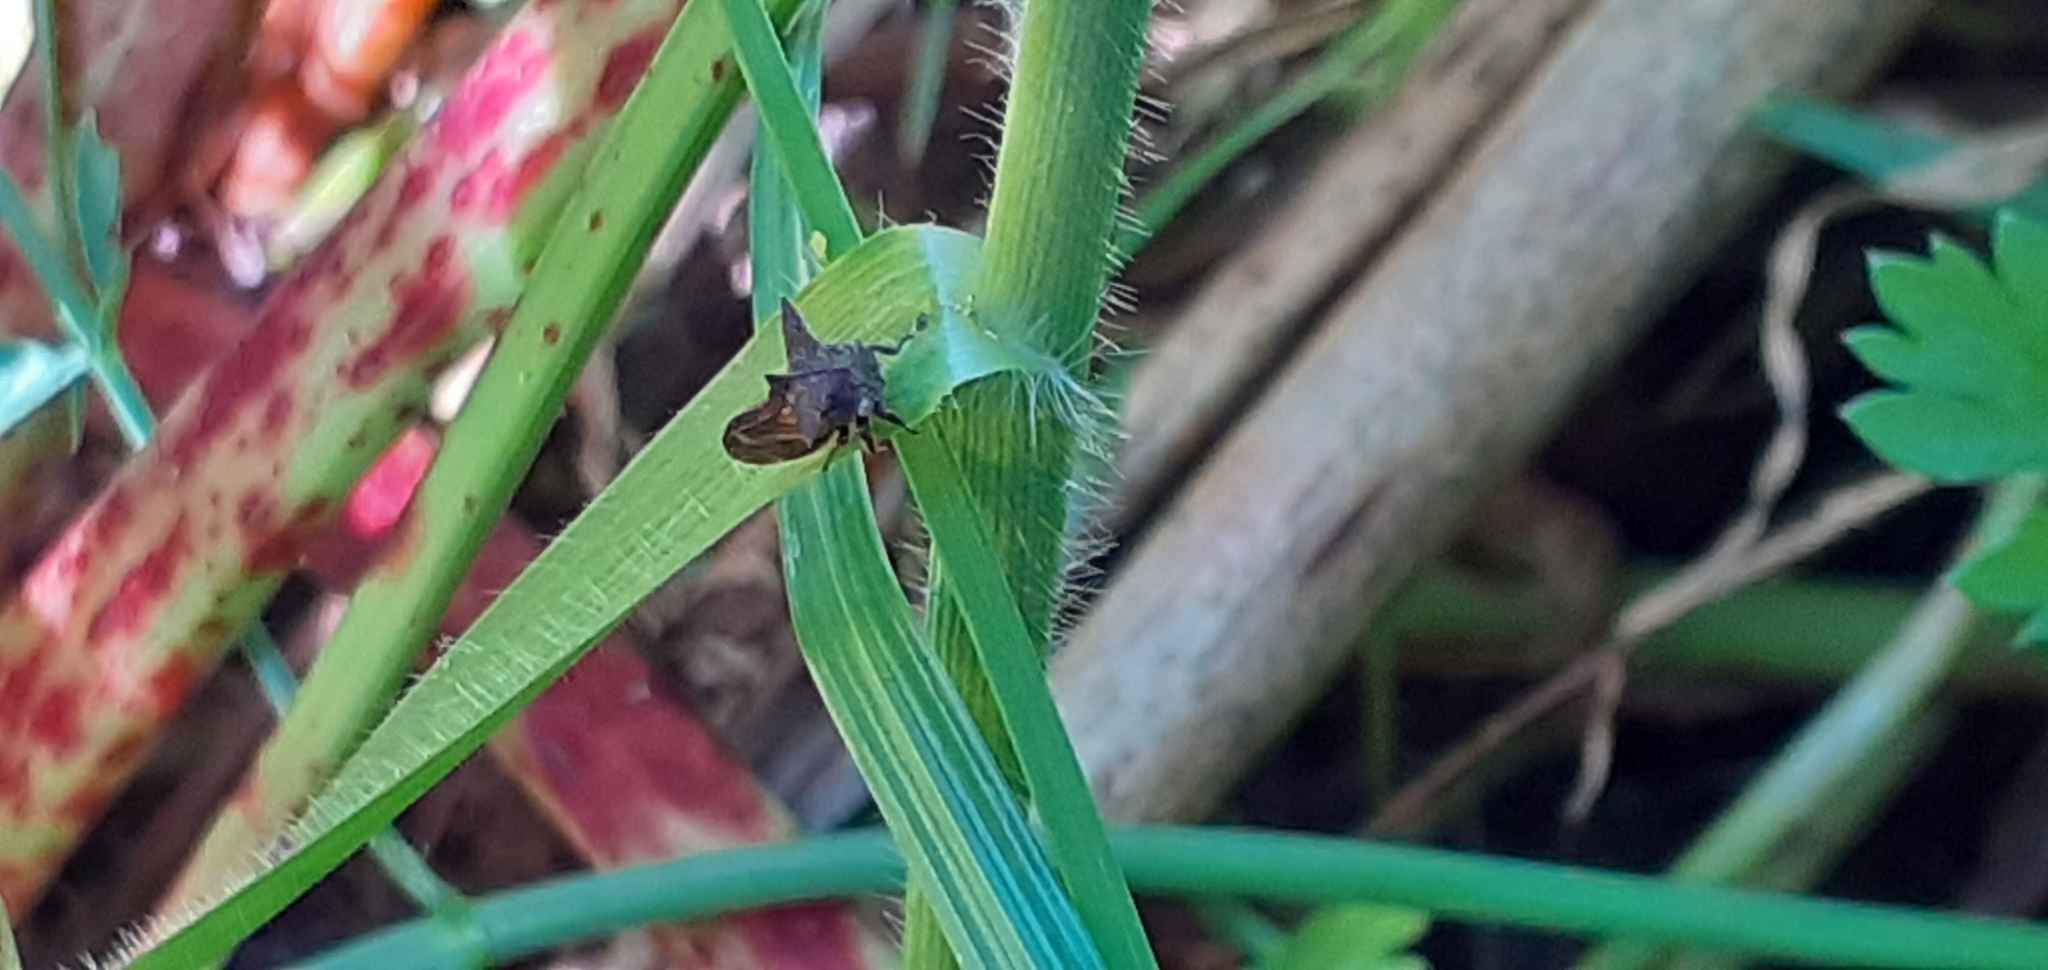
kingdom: Animalia
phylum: Arthropoda
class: Insecta
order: Hemiptera
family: Membracidae
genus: Acanthuchus
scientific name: Acanthuchus trispinifer
